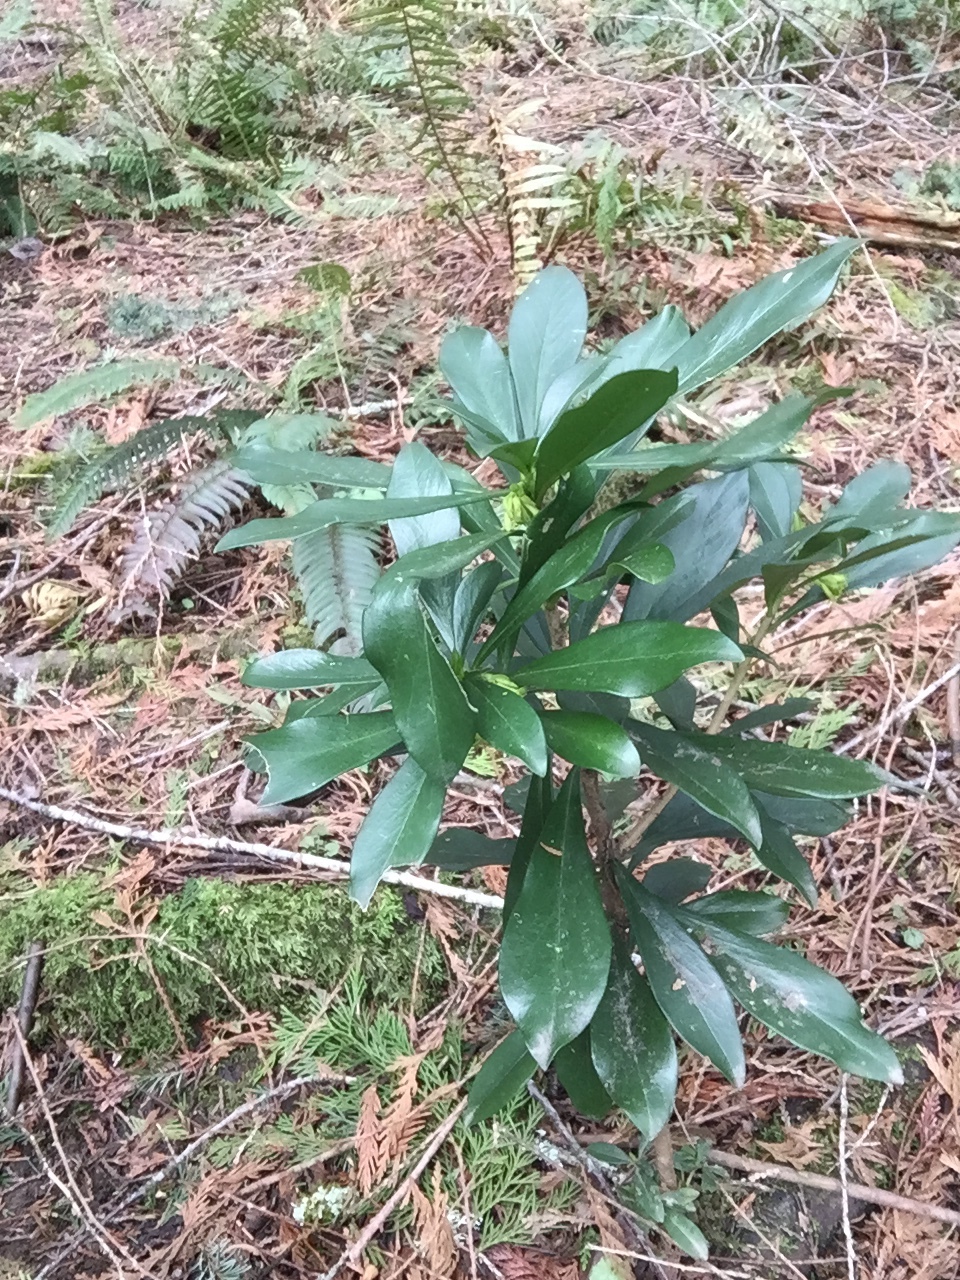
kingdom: Plantae
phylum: Tracheophyta
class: Magnoliopsida
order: Malvales
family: Thymelaeaceae
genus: Daphne
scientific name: Daphne laureola
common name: Spurge-laurel
